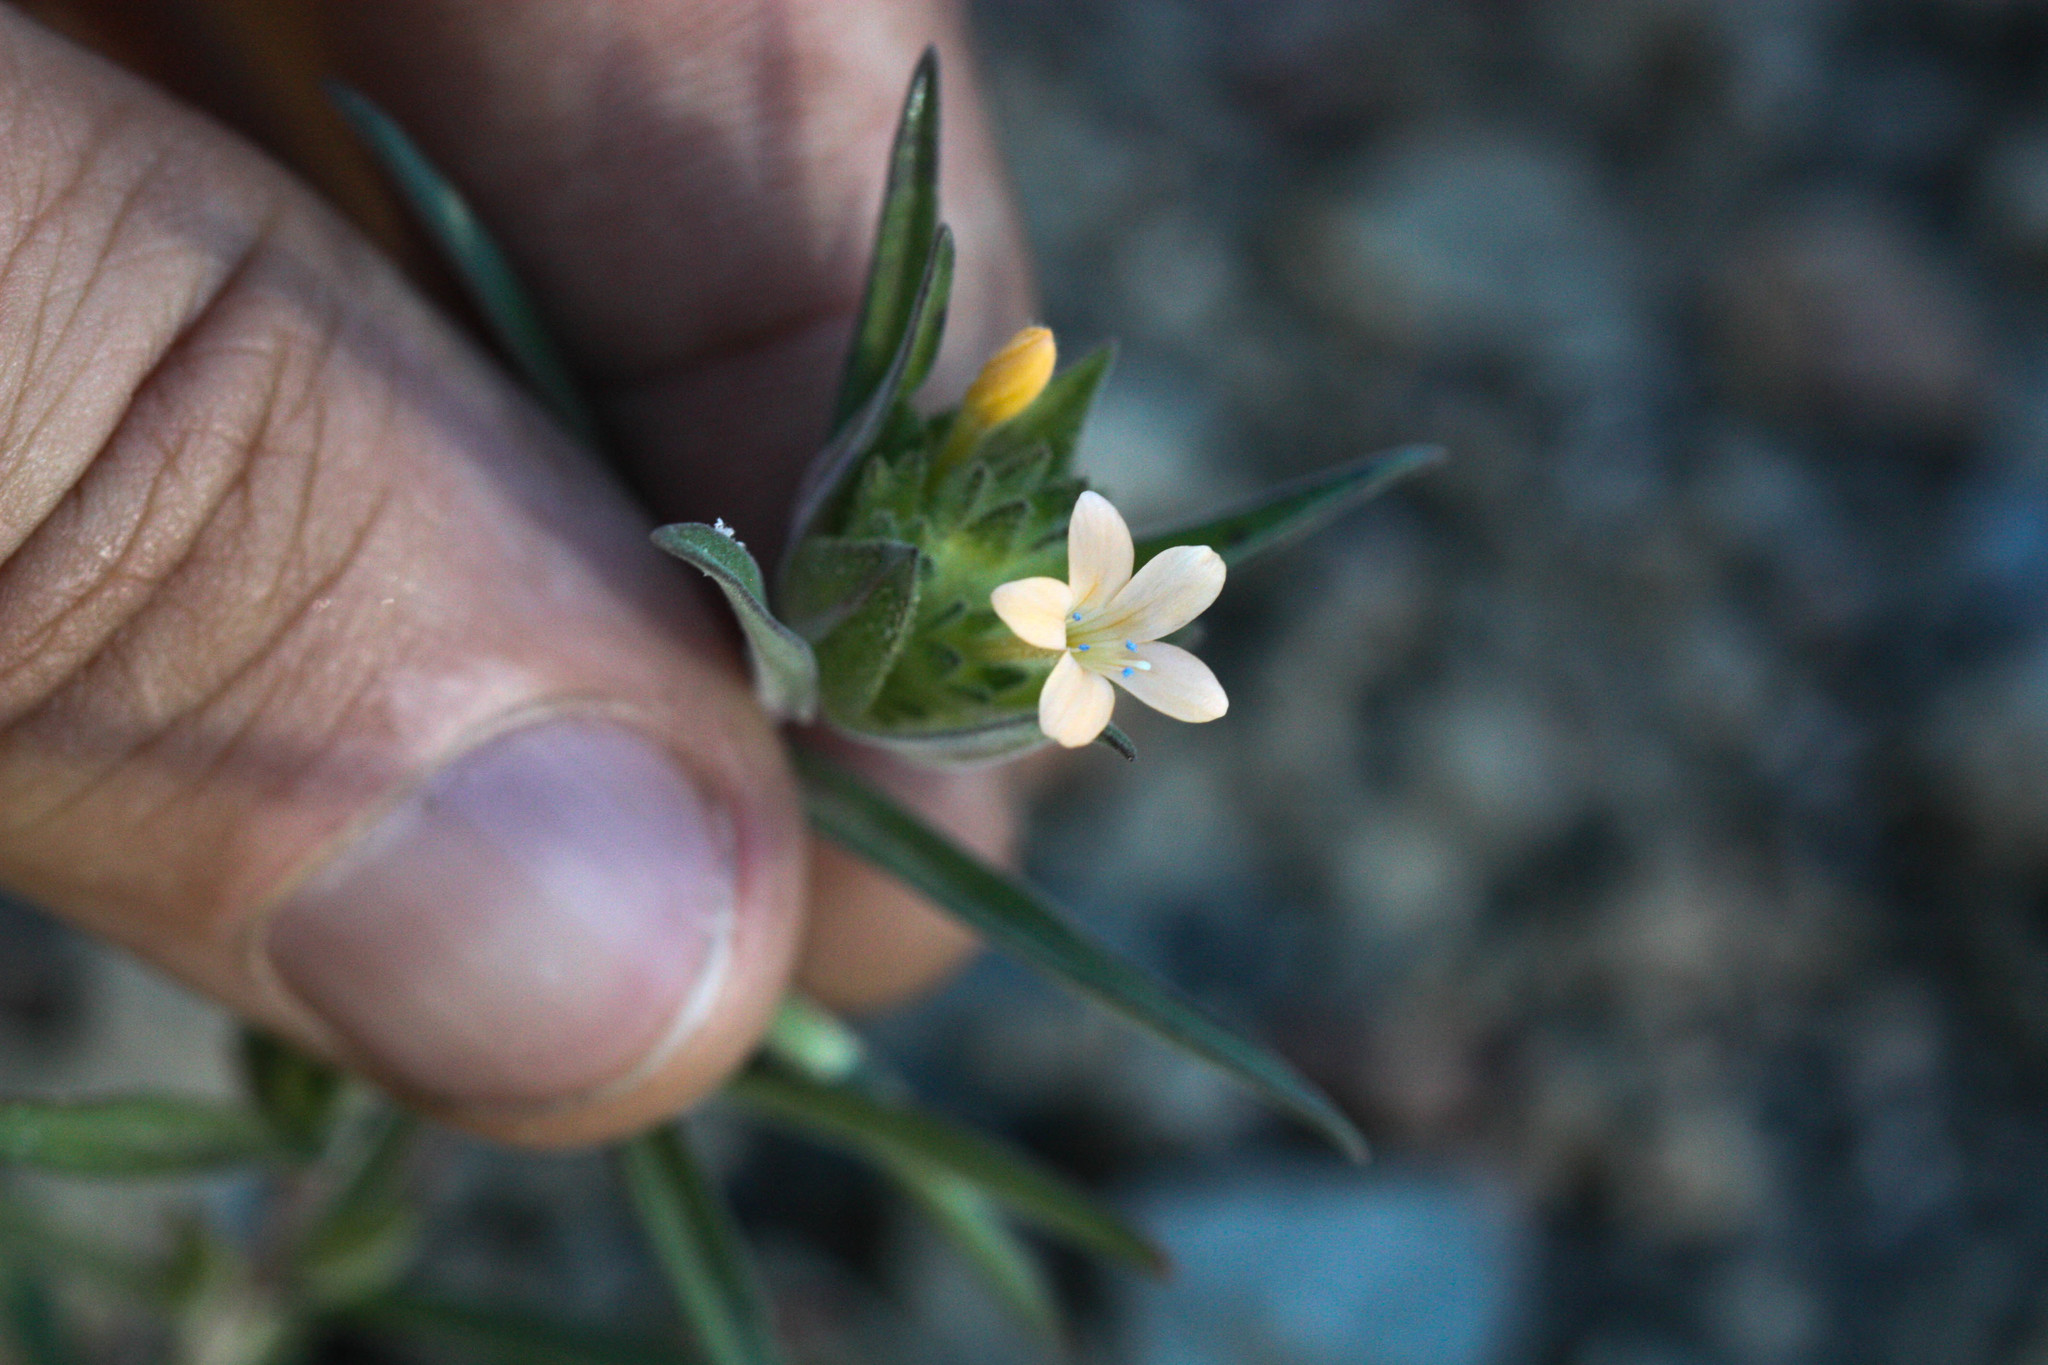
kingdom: Plantae
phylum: Tracheophyta
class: Magnoliopsida
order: Ericales
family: Polemoniaceae
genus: Collomia
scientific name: Collomia grandiflora
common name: California strawflower
